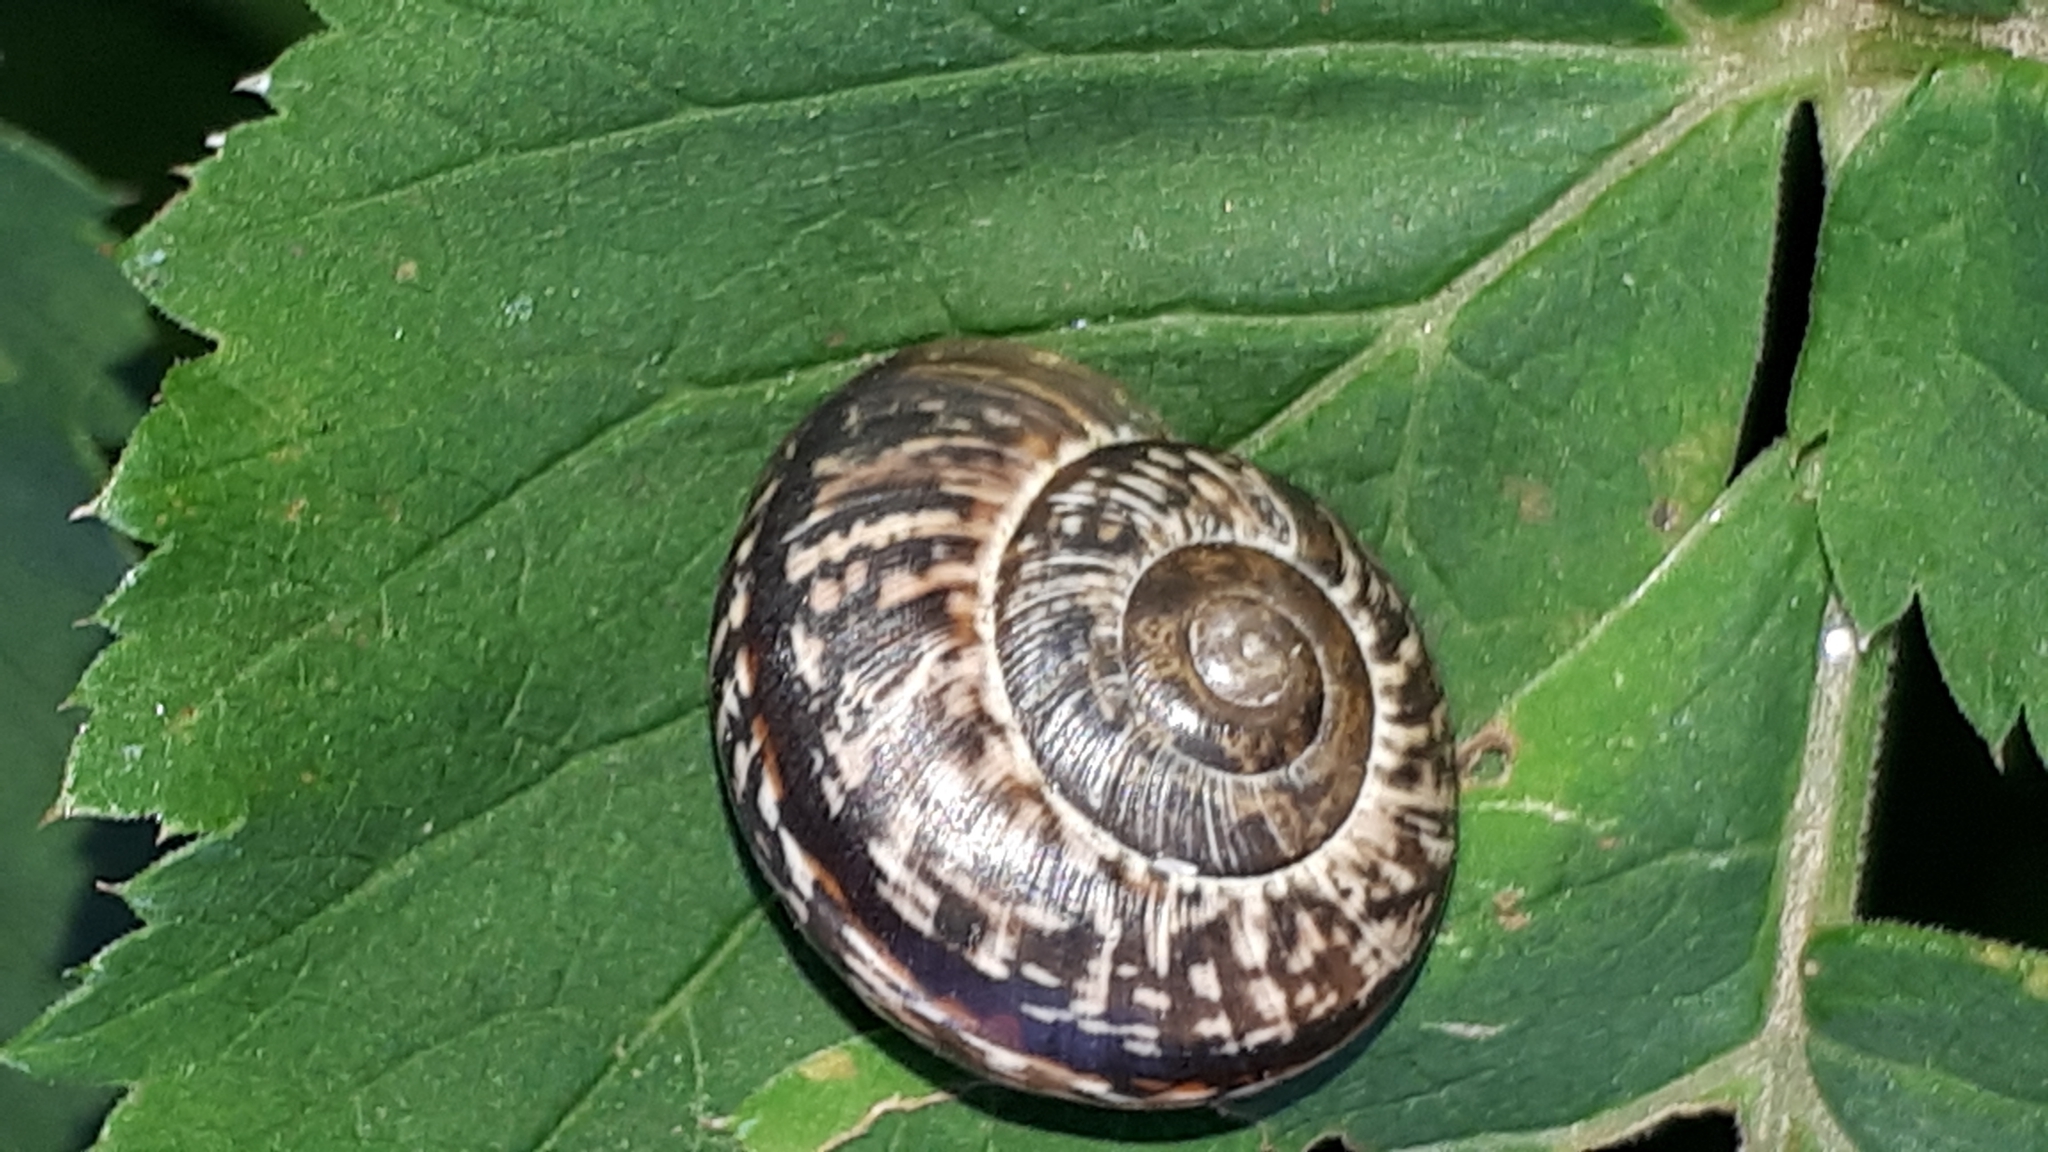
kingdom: Animalia
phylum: Mollusca
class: Gastropoda
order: Stylommatophora
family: Helicidae
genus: Arianta
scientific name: Arianta arbustorum
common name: Copse snail
